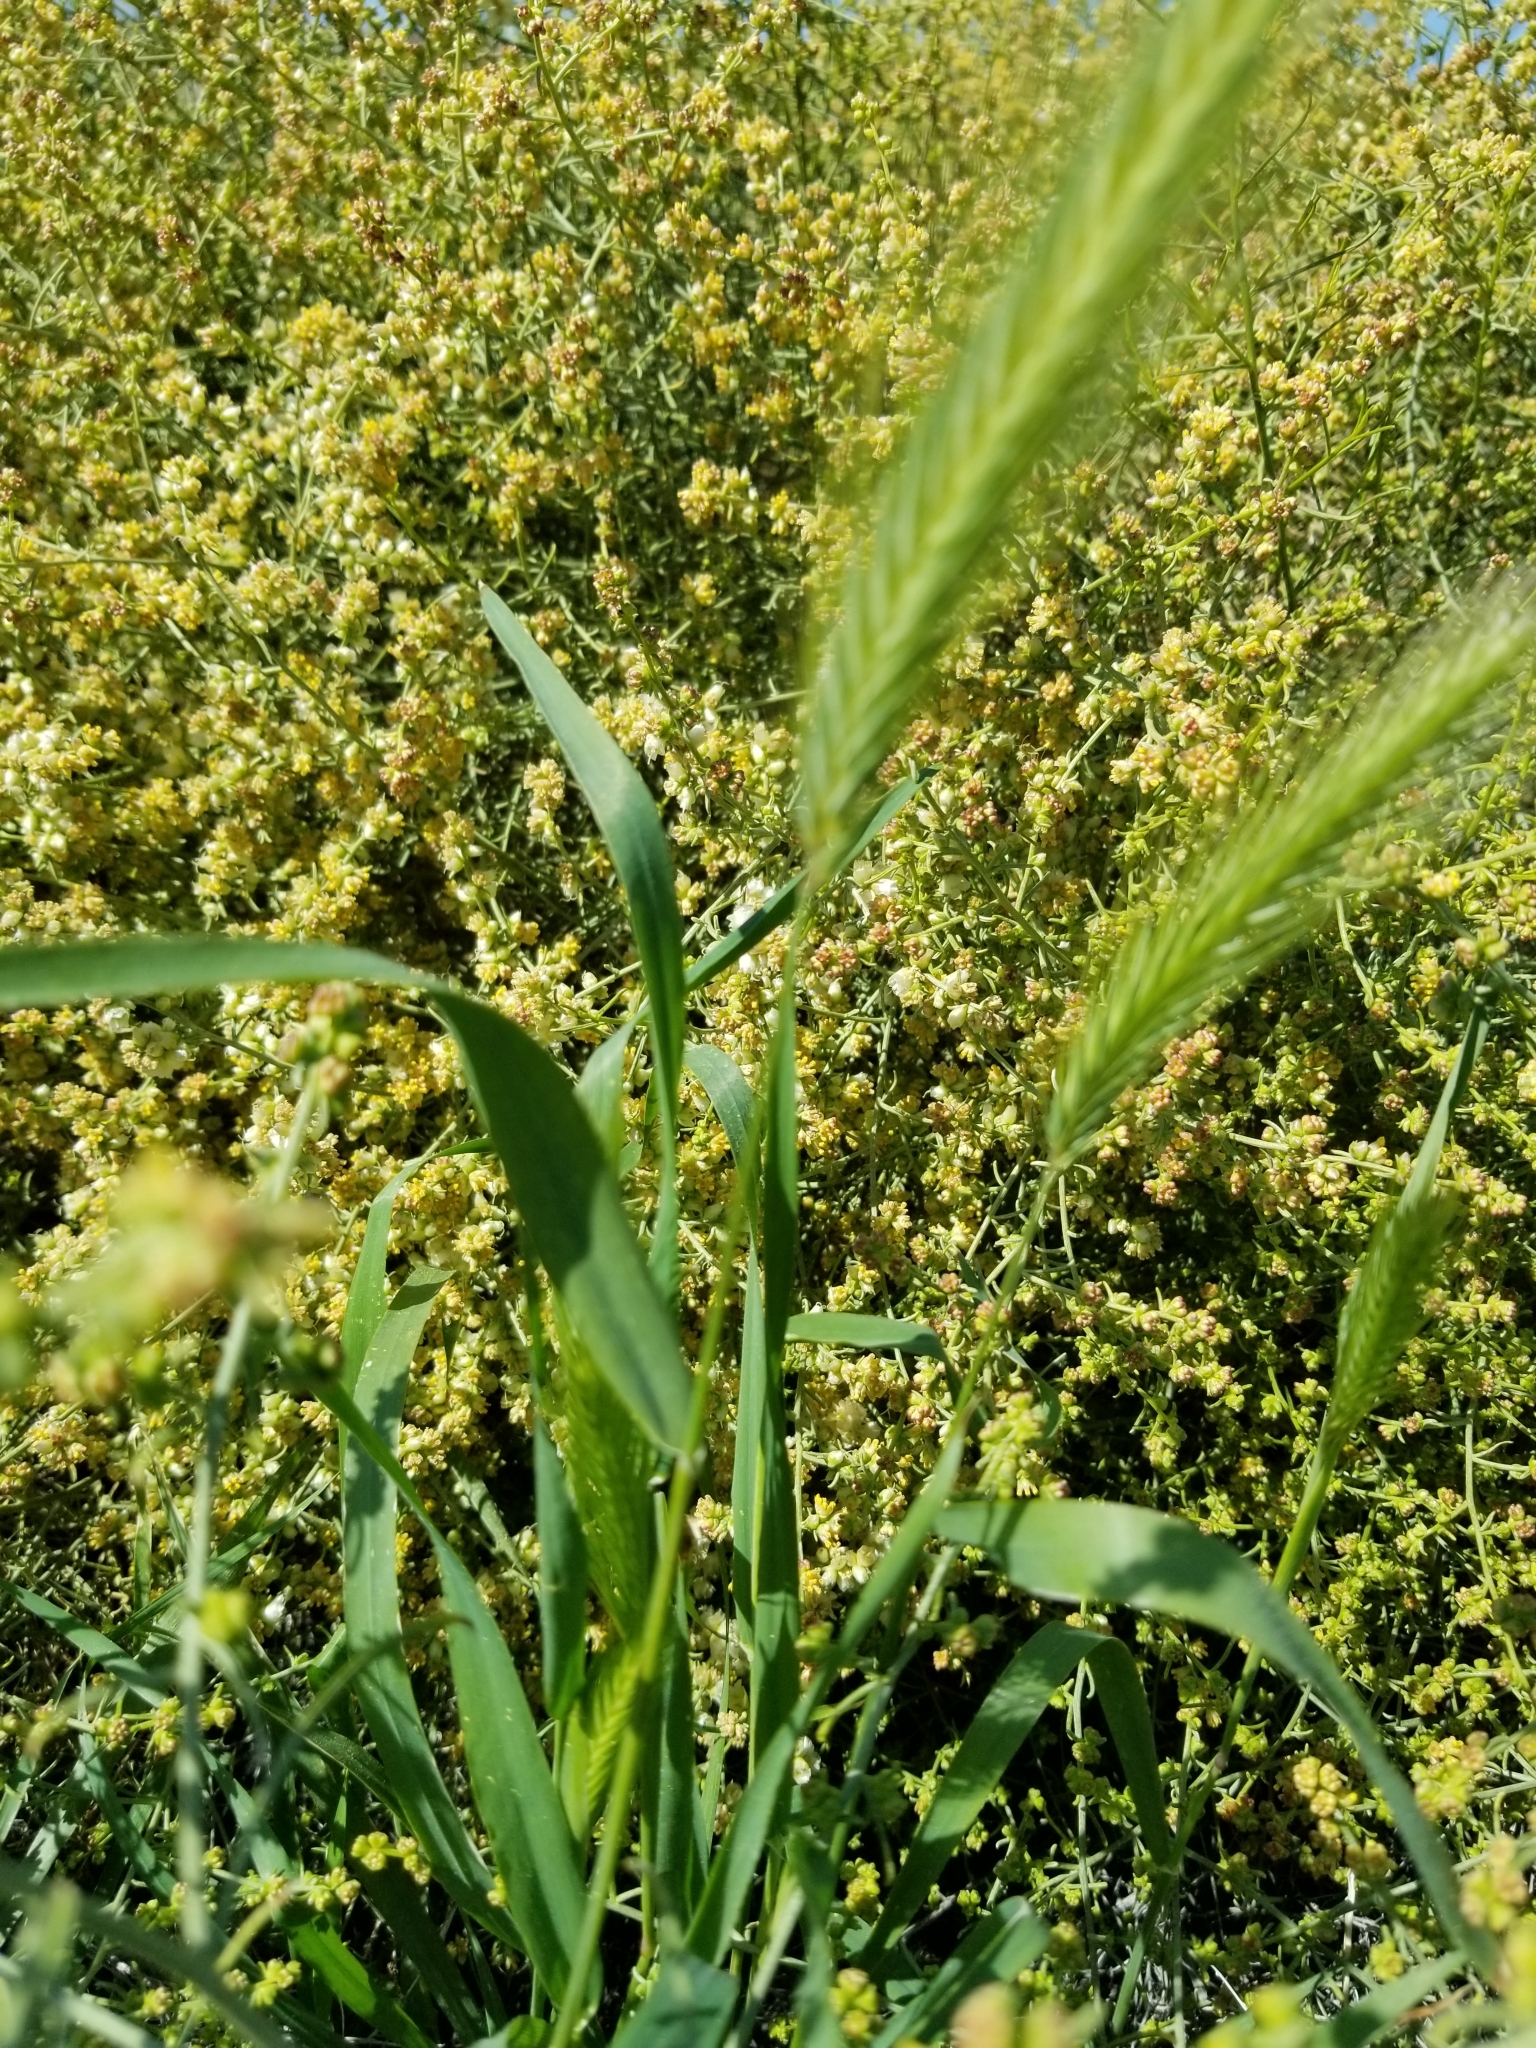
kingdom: Plantae
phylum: Tracheophyta
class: Liliopsida
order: Poales
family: Poaceae
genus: Hordeum
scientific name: Hordeum murinum
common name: Wall barley
